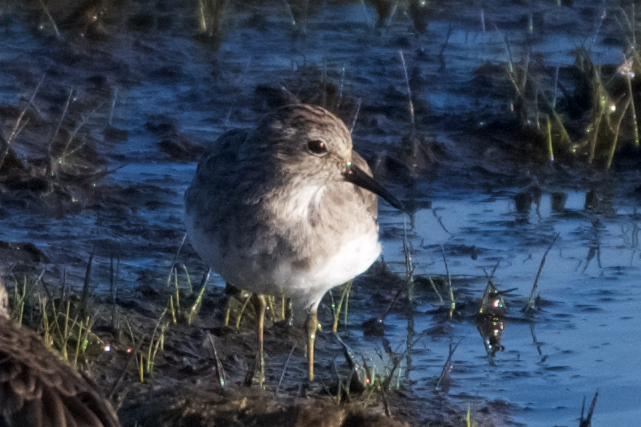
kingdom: Animalia
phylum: Chordata
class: Aves
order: Charadriiformes
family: Scolopacidae
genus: Calidris
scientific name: Calidris minutilla
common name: Least sandpiper
